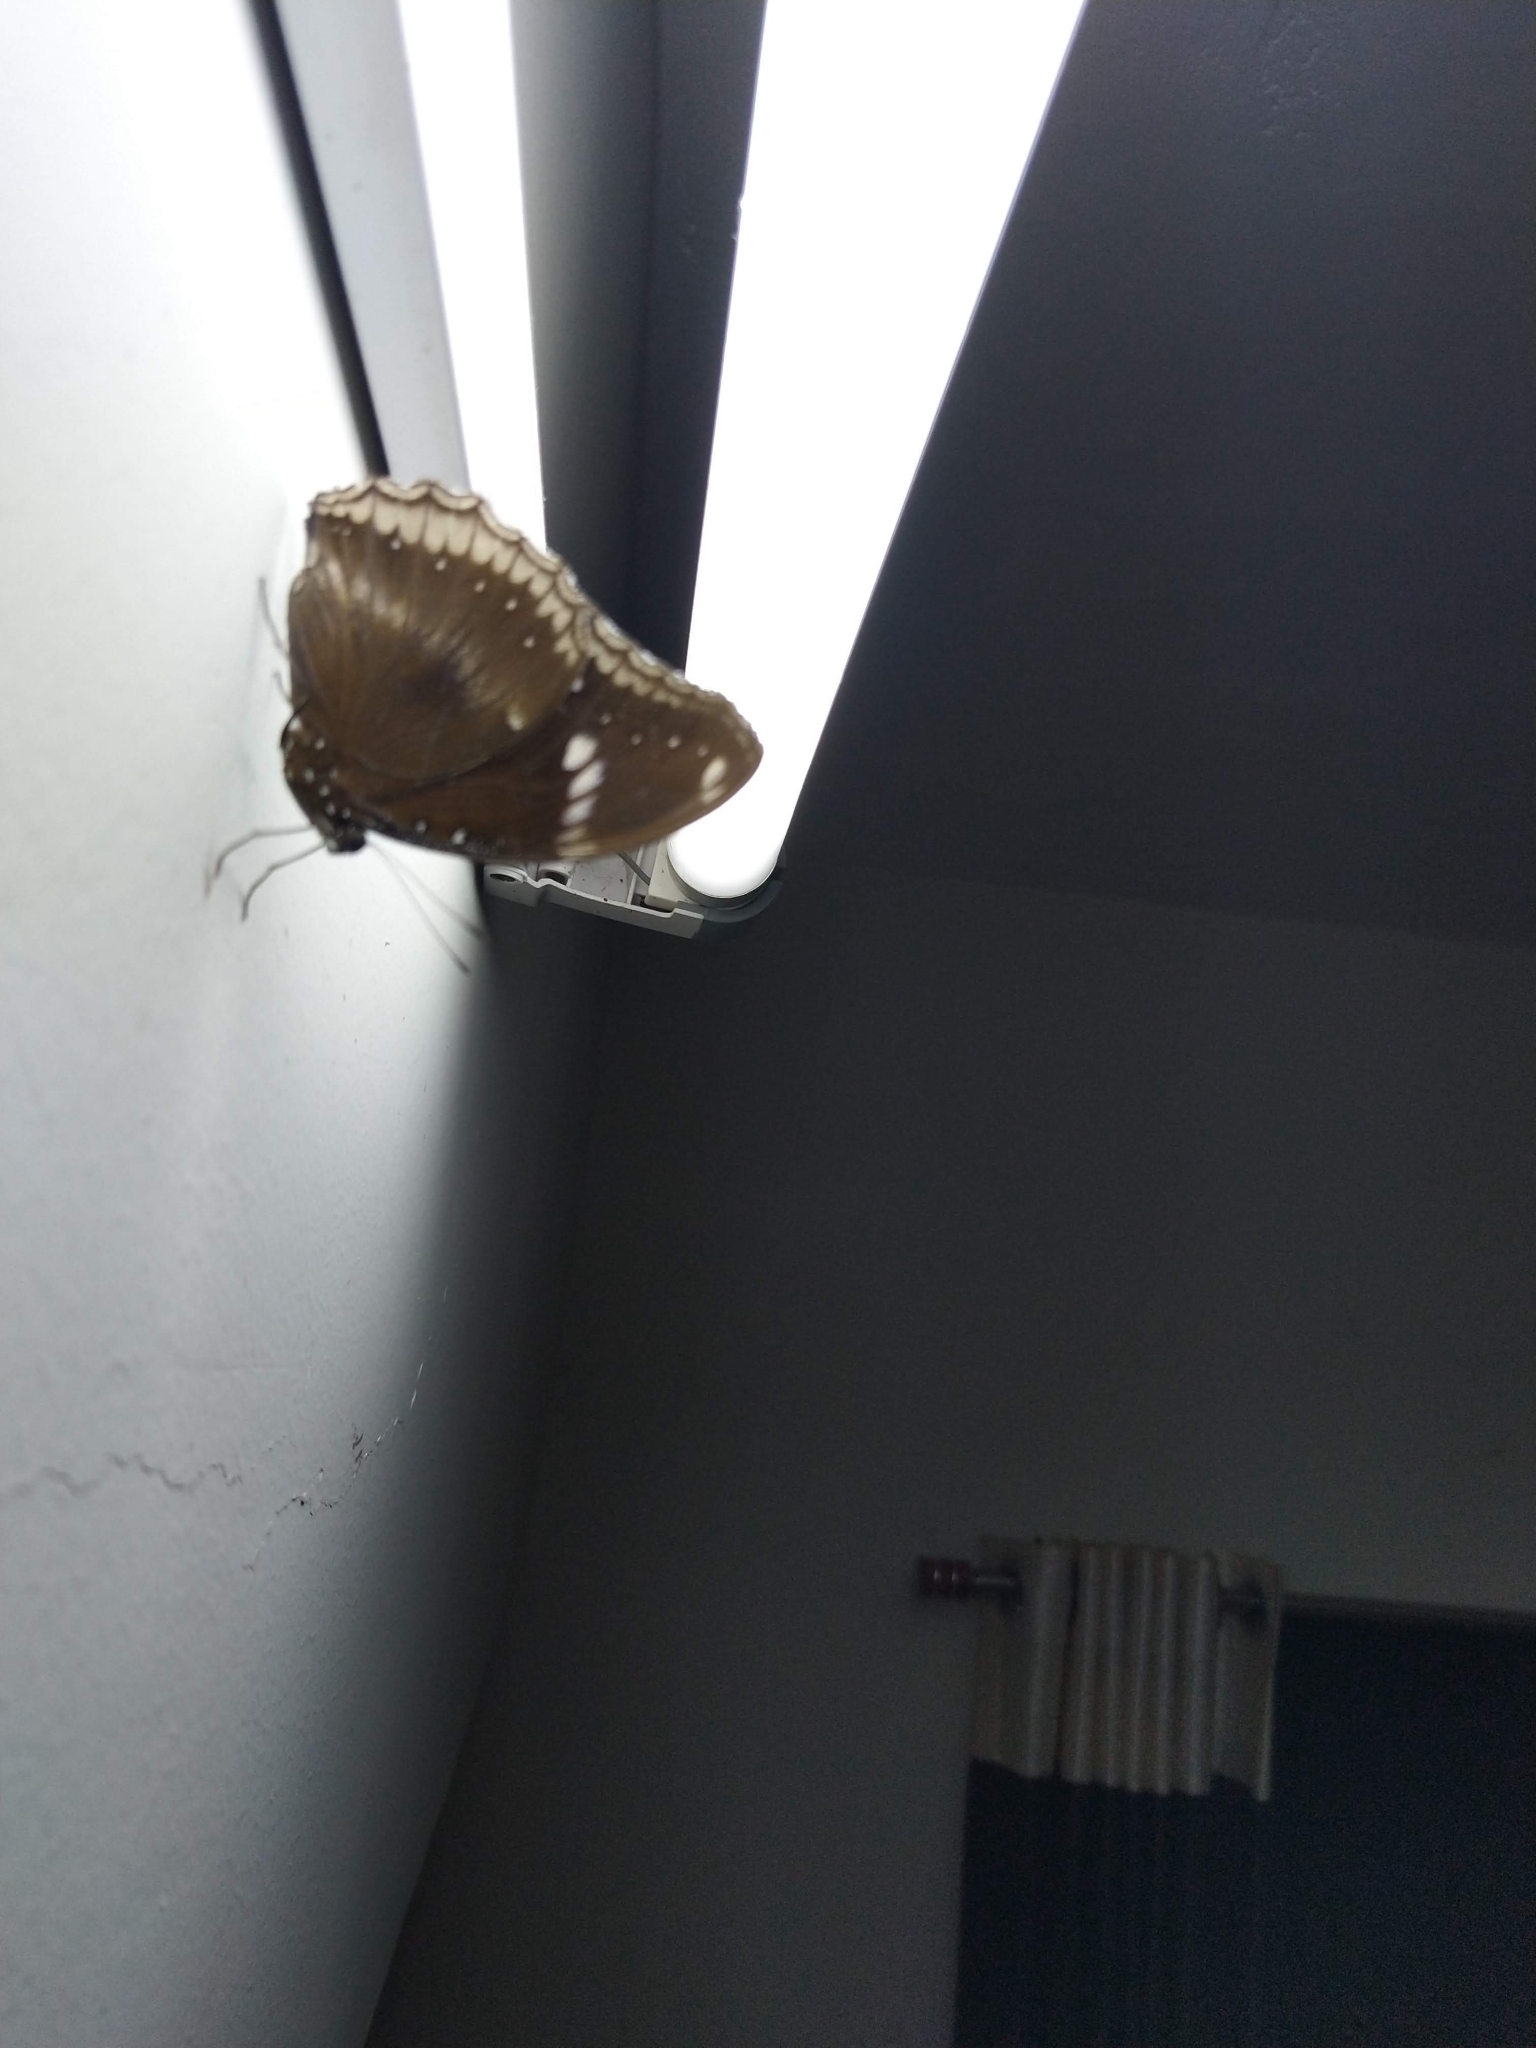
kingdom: Animalia
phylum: Arthropoda
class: Insecta
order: Lepidoptera
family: Nymphalidae
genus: Hypolimnas
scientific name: Hypolimnas bolina
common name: Great eggfly
